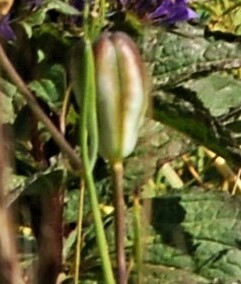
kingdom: Plantae
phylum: Tracheophyta
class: Liliopsida
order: Liliales
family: Liliaceae
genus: Lilium
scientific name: Lilium pumilum
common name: Coral lily
